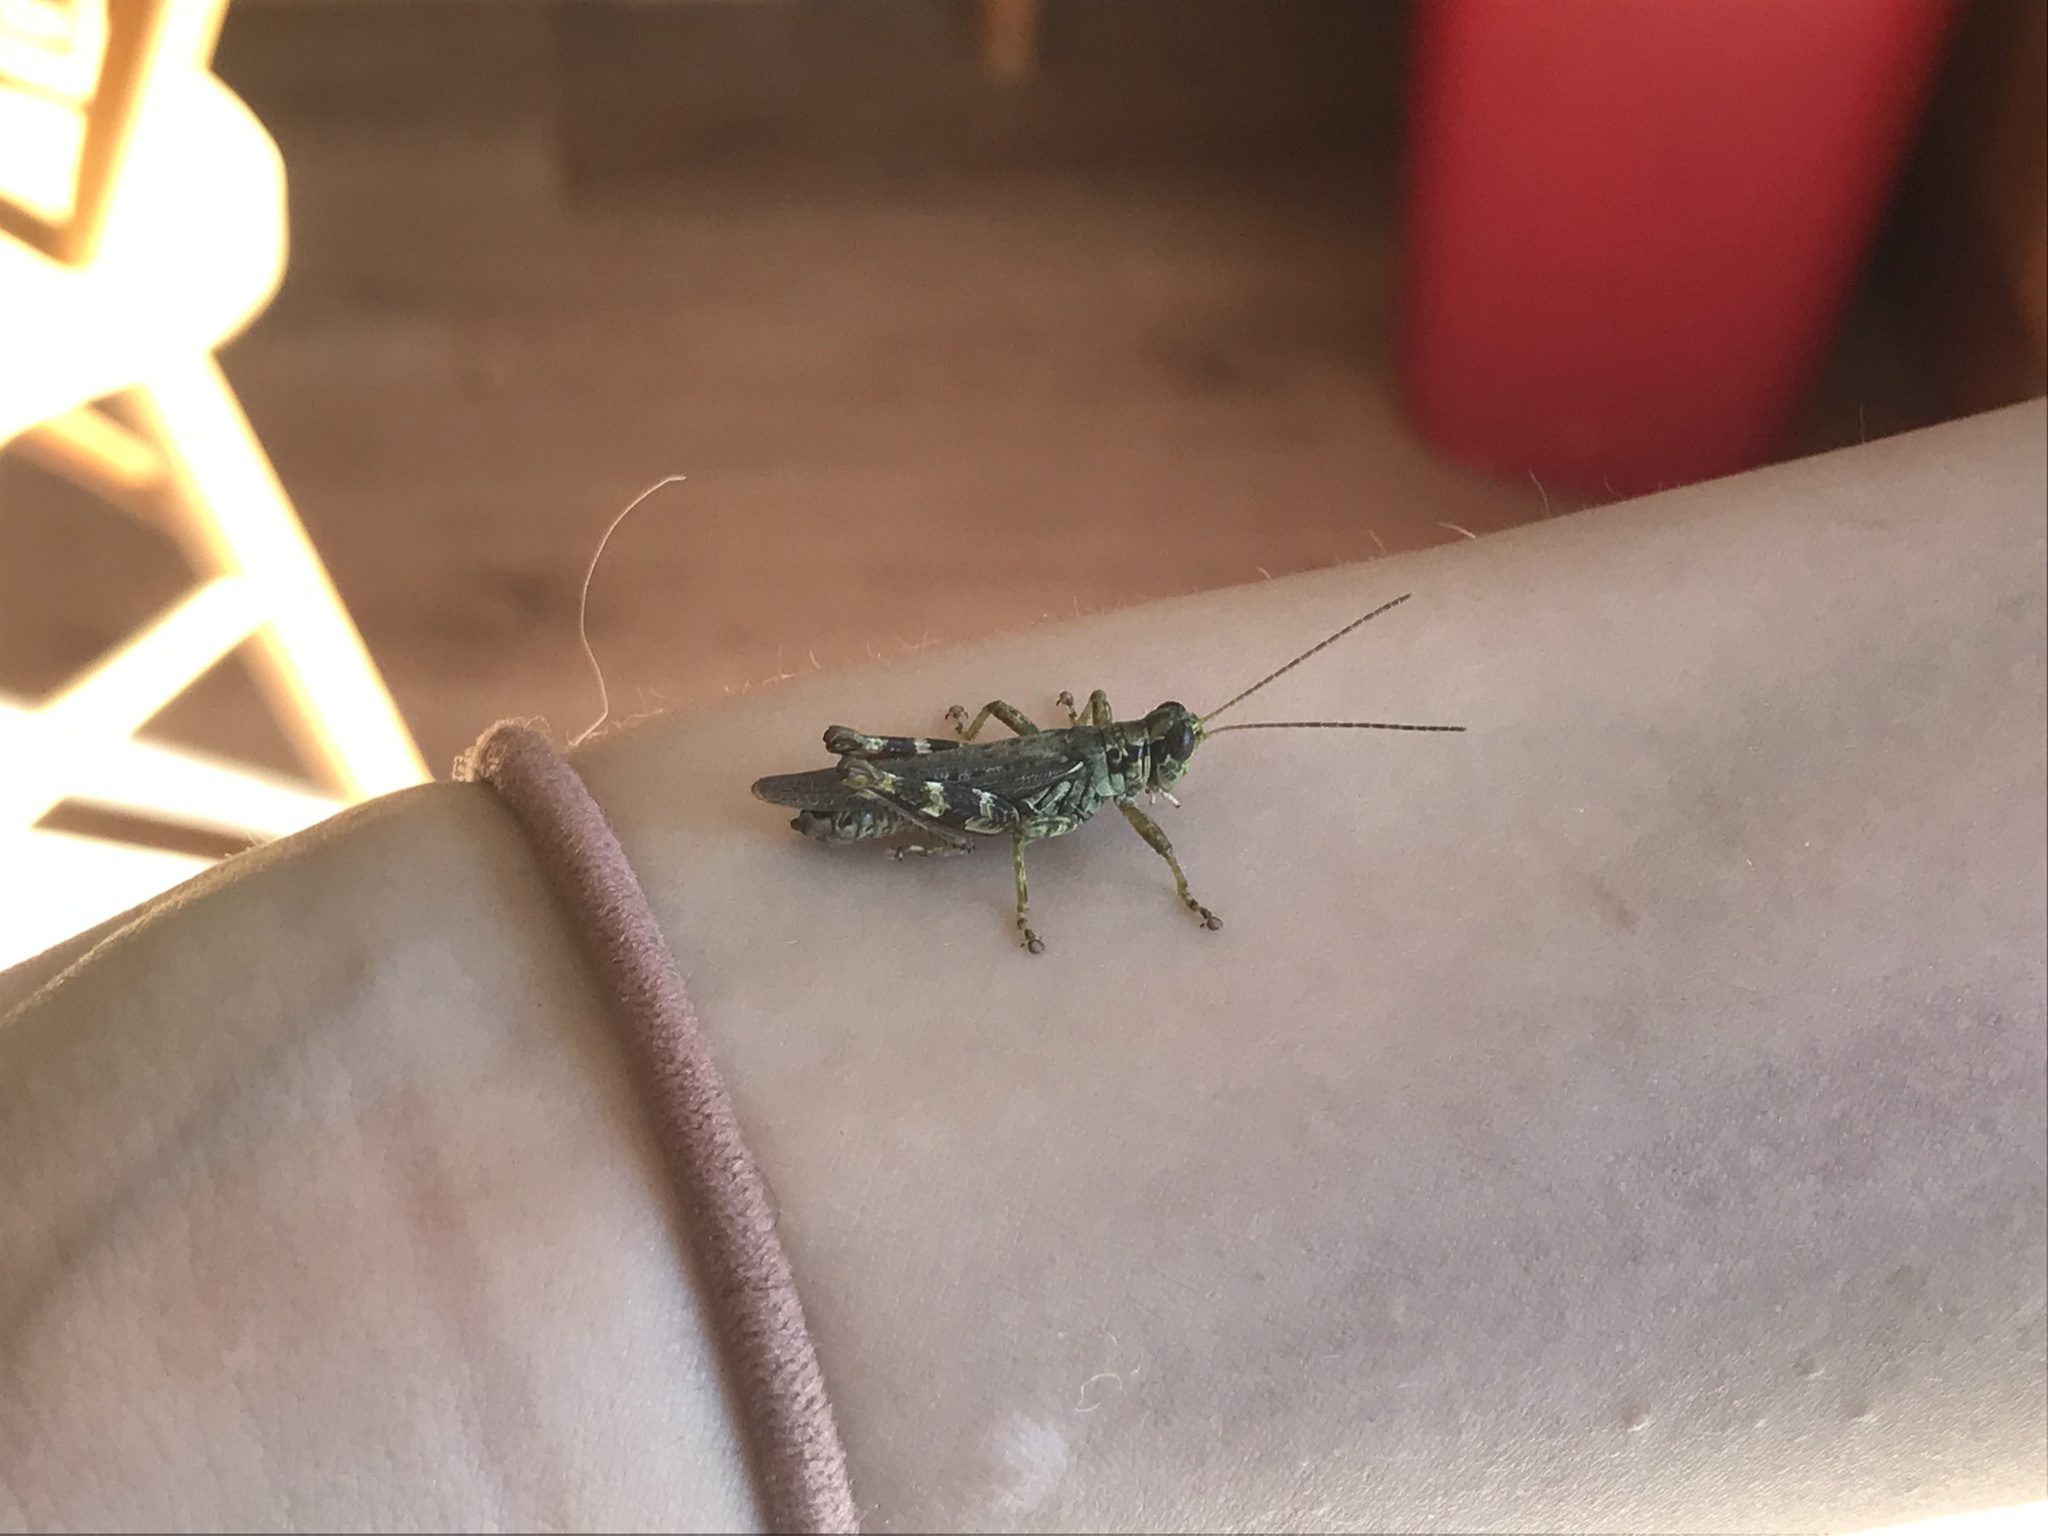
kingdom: Animalia
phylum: Arthropoda
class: Insecta
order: Orthoptera
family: Acrididae
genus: Melanoplus
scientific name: Melanoplus punctulatus
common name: Pine-tree spur-throat grasshopper
